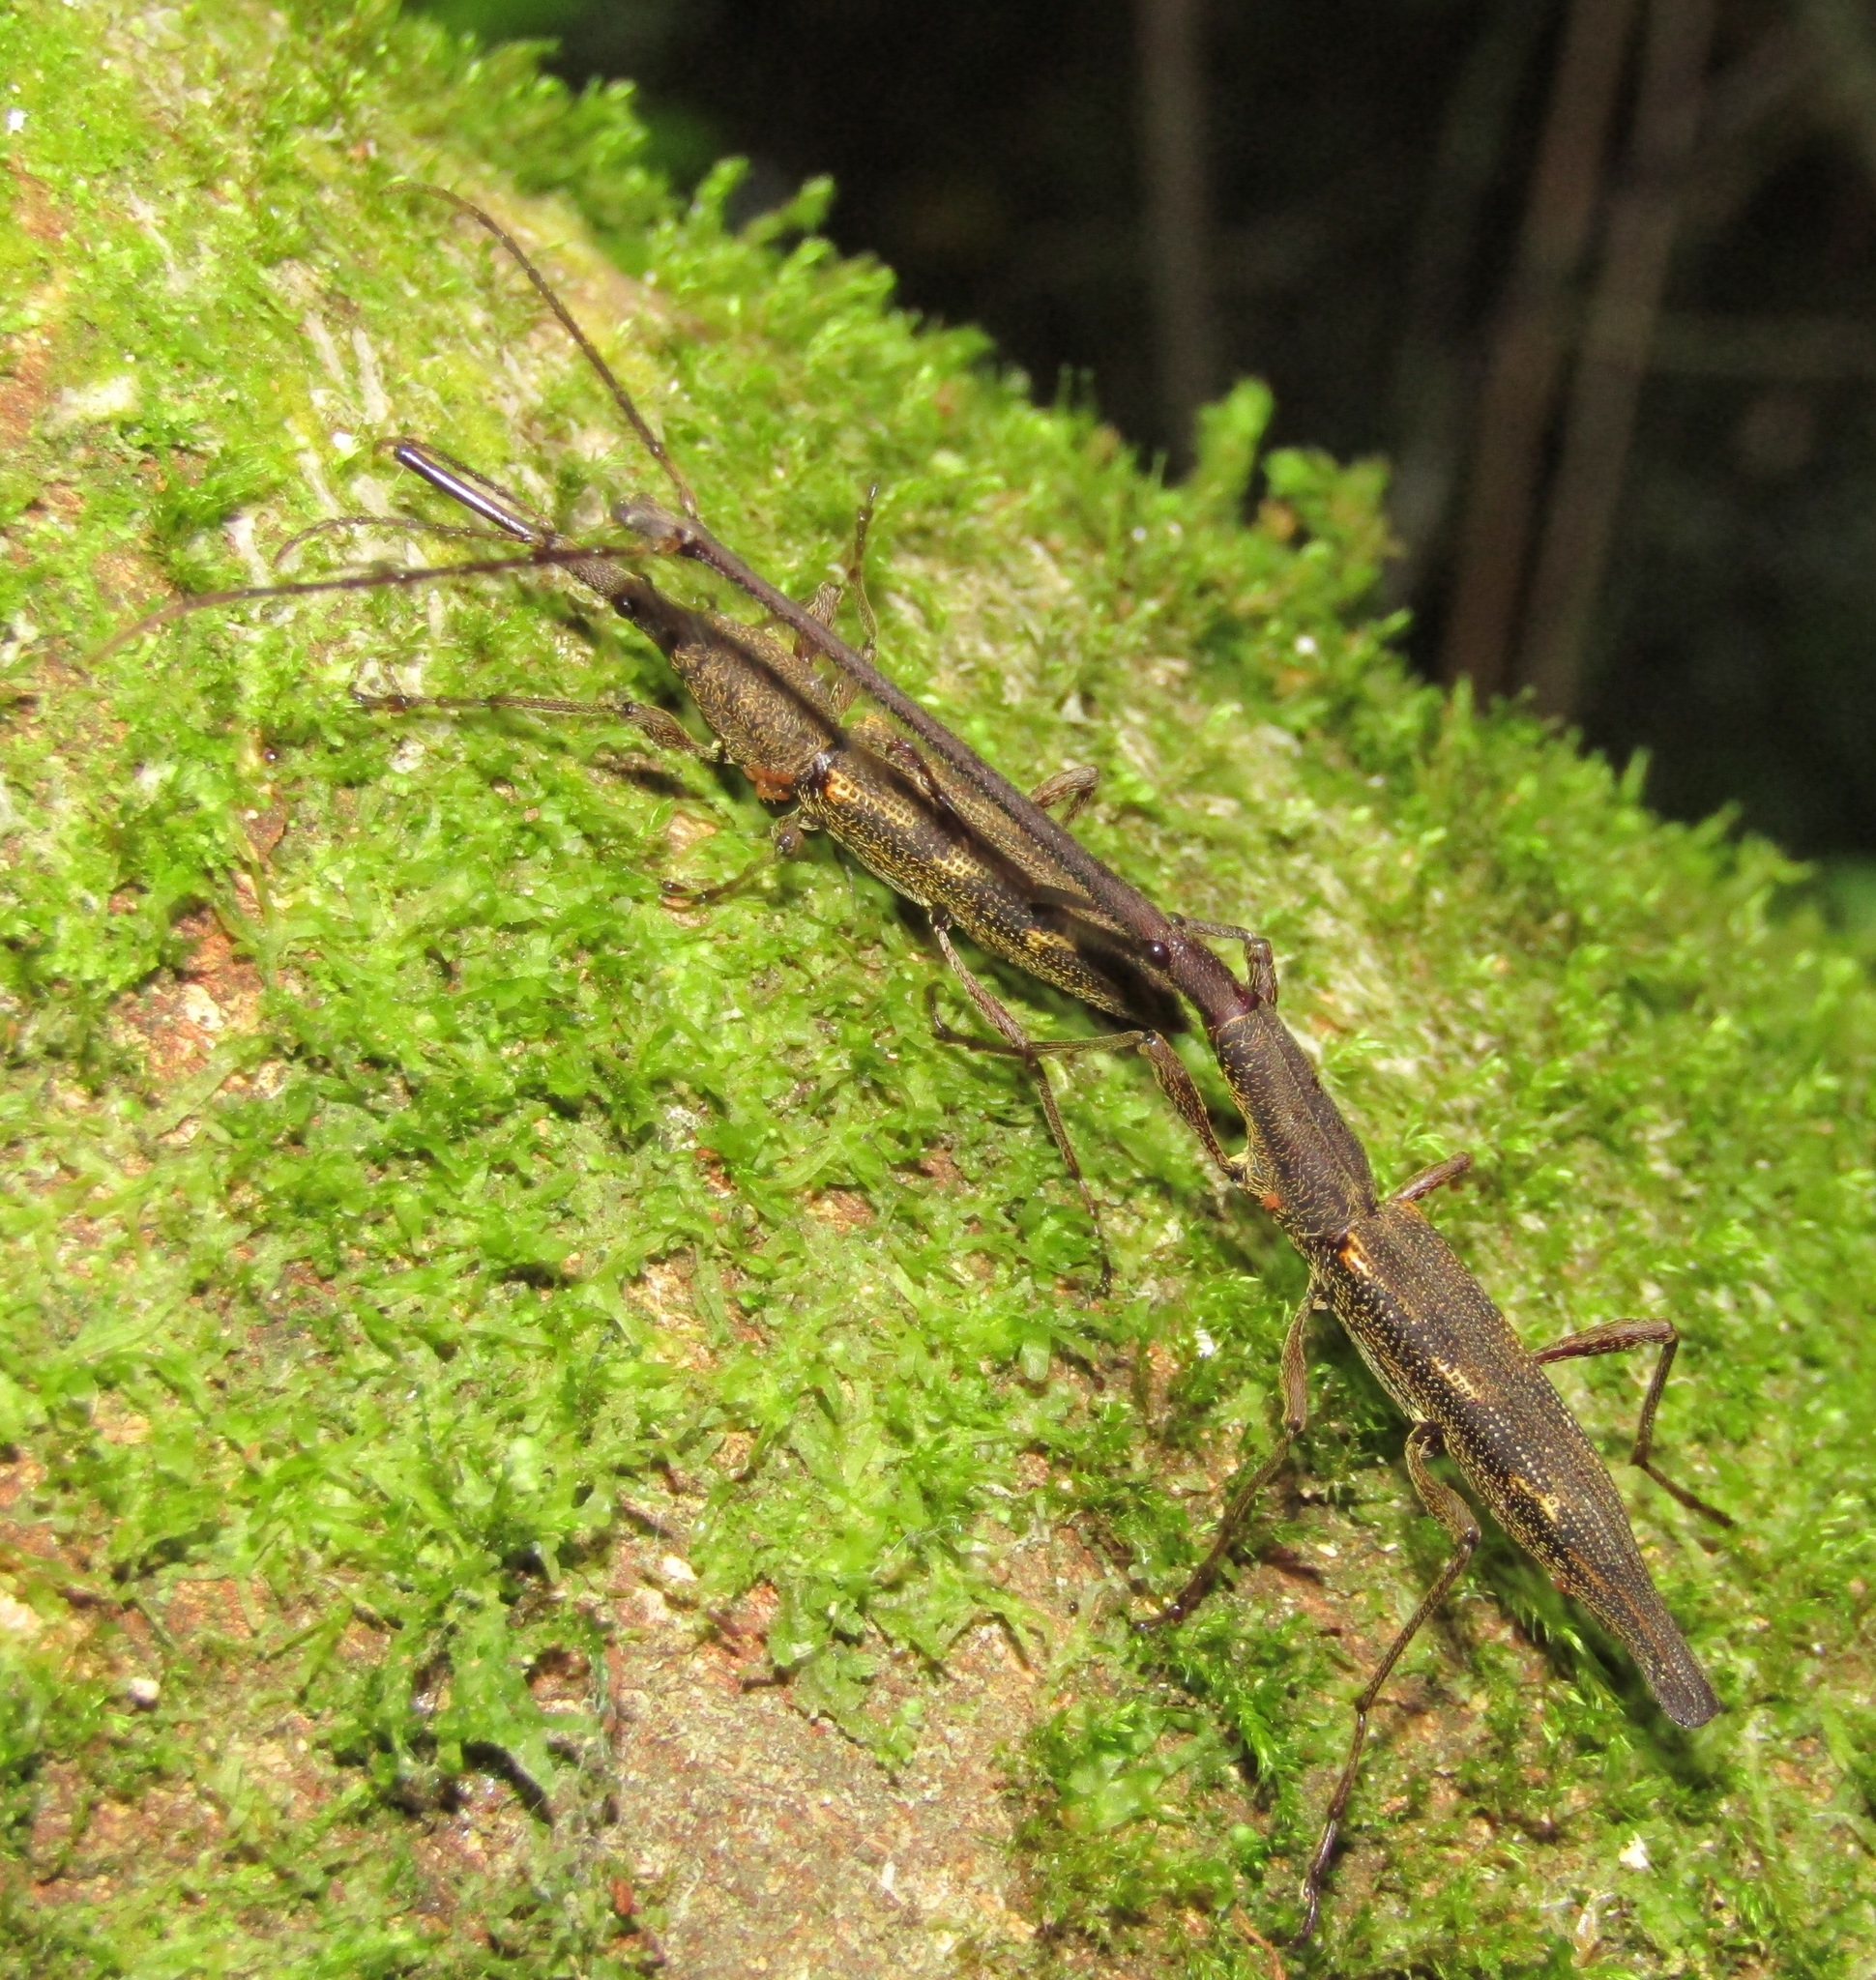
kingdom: Animalia
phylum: Arthropoda
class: Insecta
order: Coleoptera
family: Brentidae
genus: Lasiorhynchus
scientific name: Lasiorhynchus barbicornis
